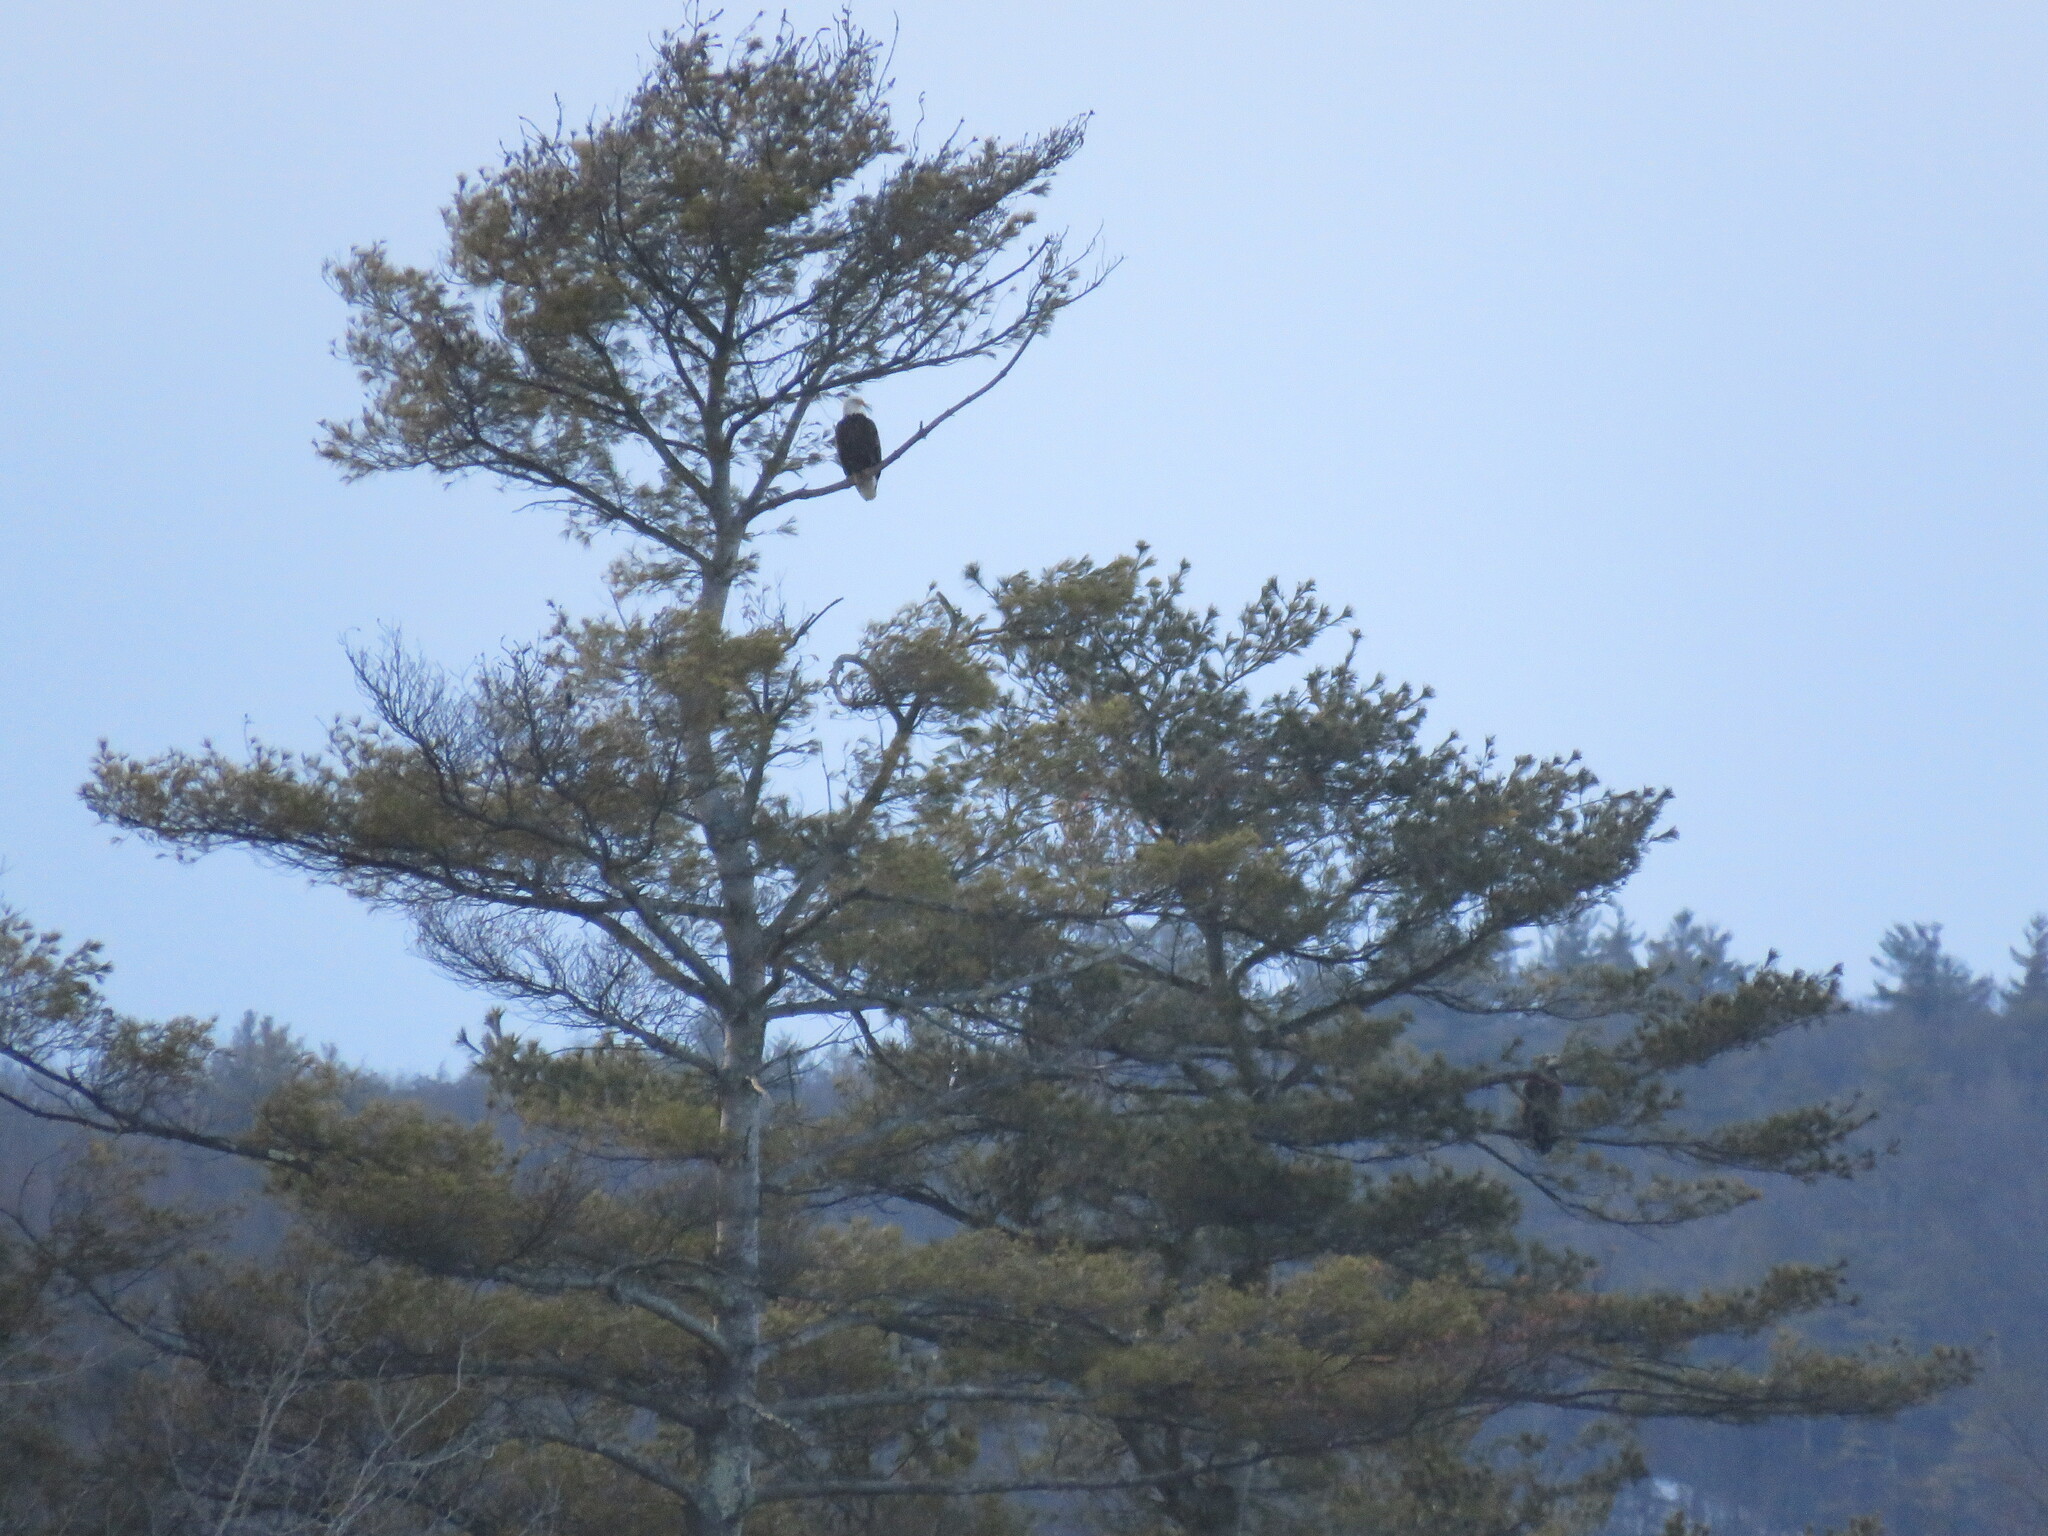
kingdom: Animalia
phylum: Chordata
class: Aves
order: Accipitriformes
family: Accipitridae
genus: Haliaeetus
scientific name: Haliaeetus leucocephalus
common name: Bald eagle
